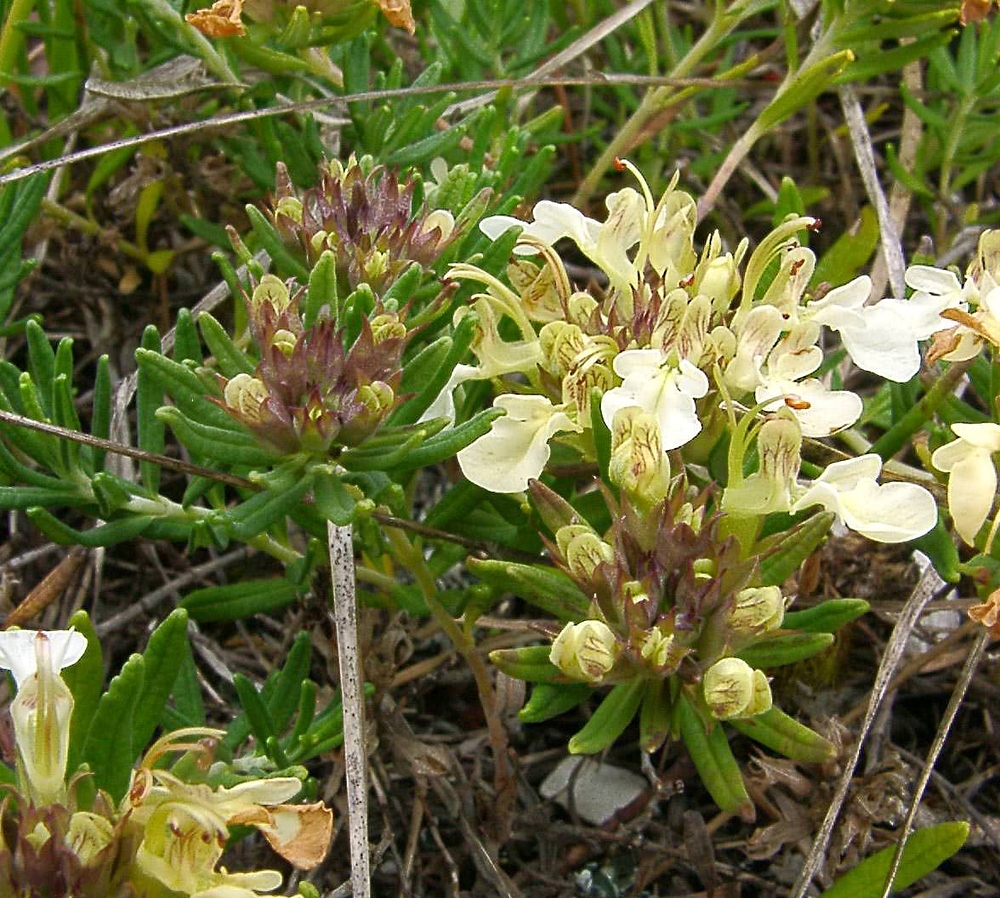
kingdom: Plantae
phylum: Tracheophyta
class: Magnoliopsida
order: Lamiales
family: Lamiaceae
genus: Teucrium
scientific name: Teucrium montanum
